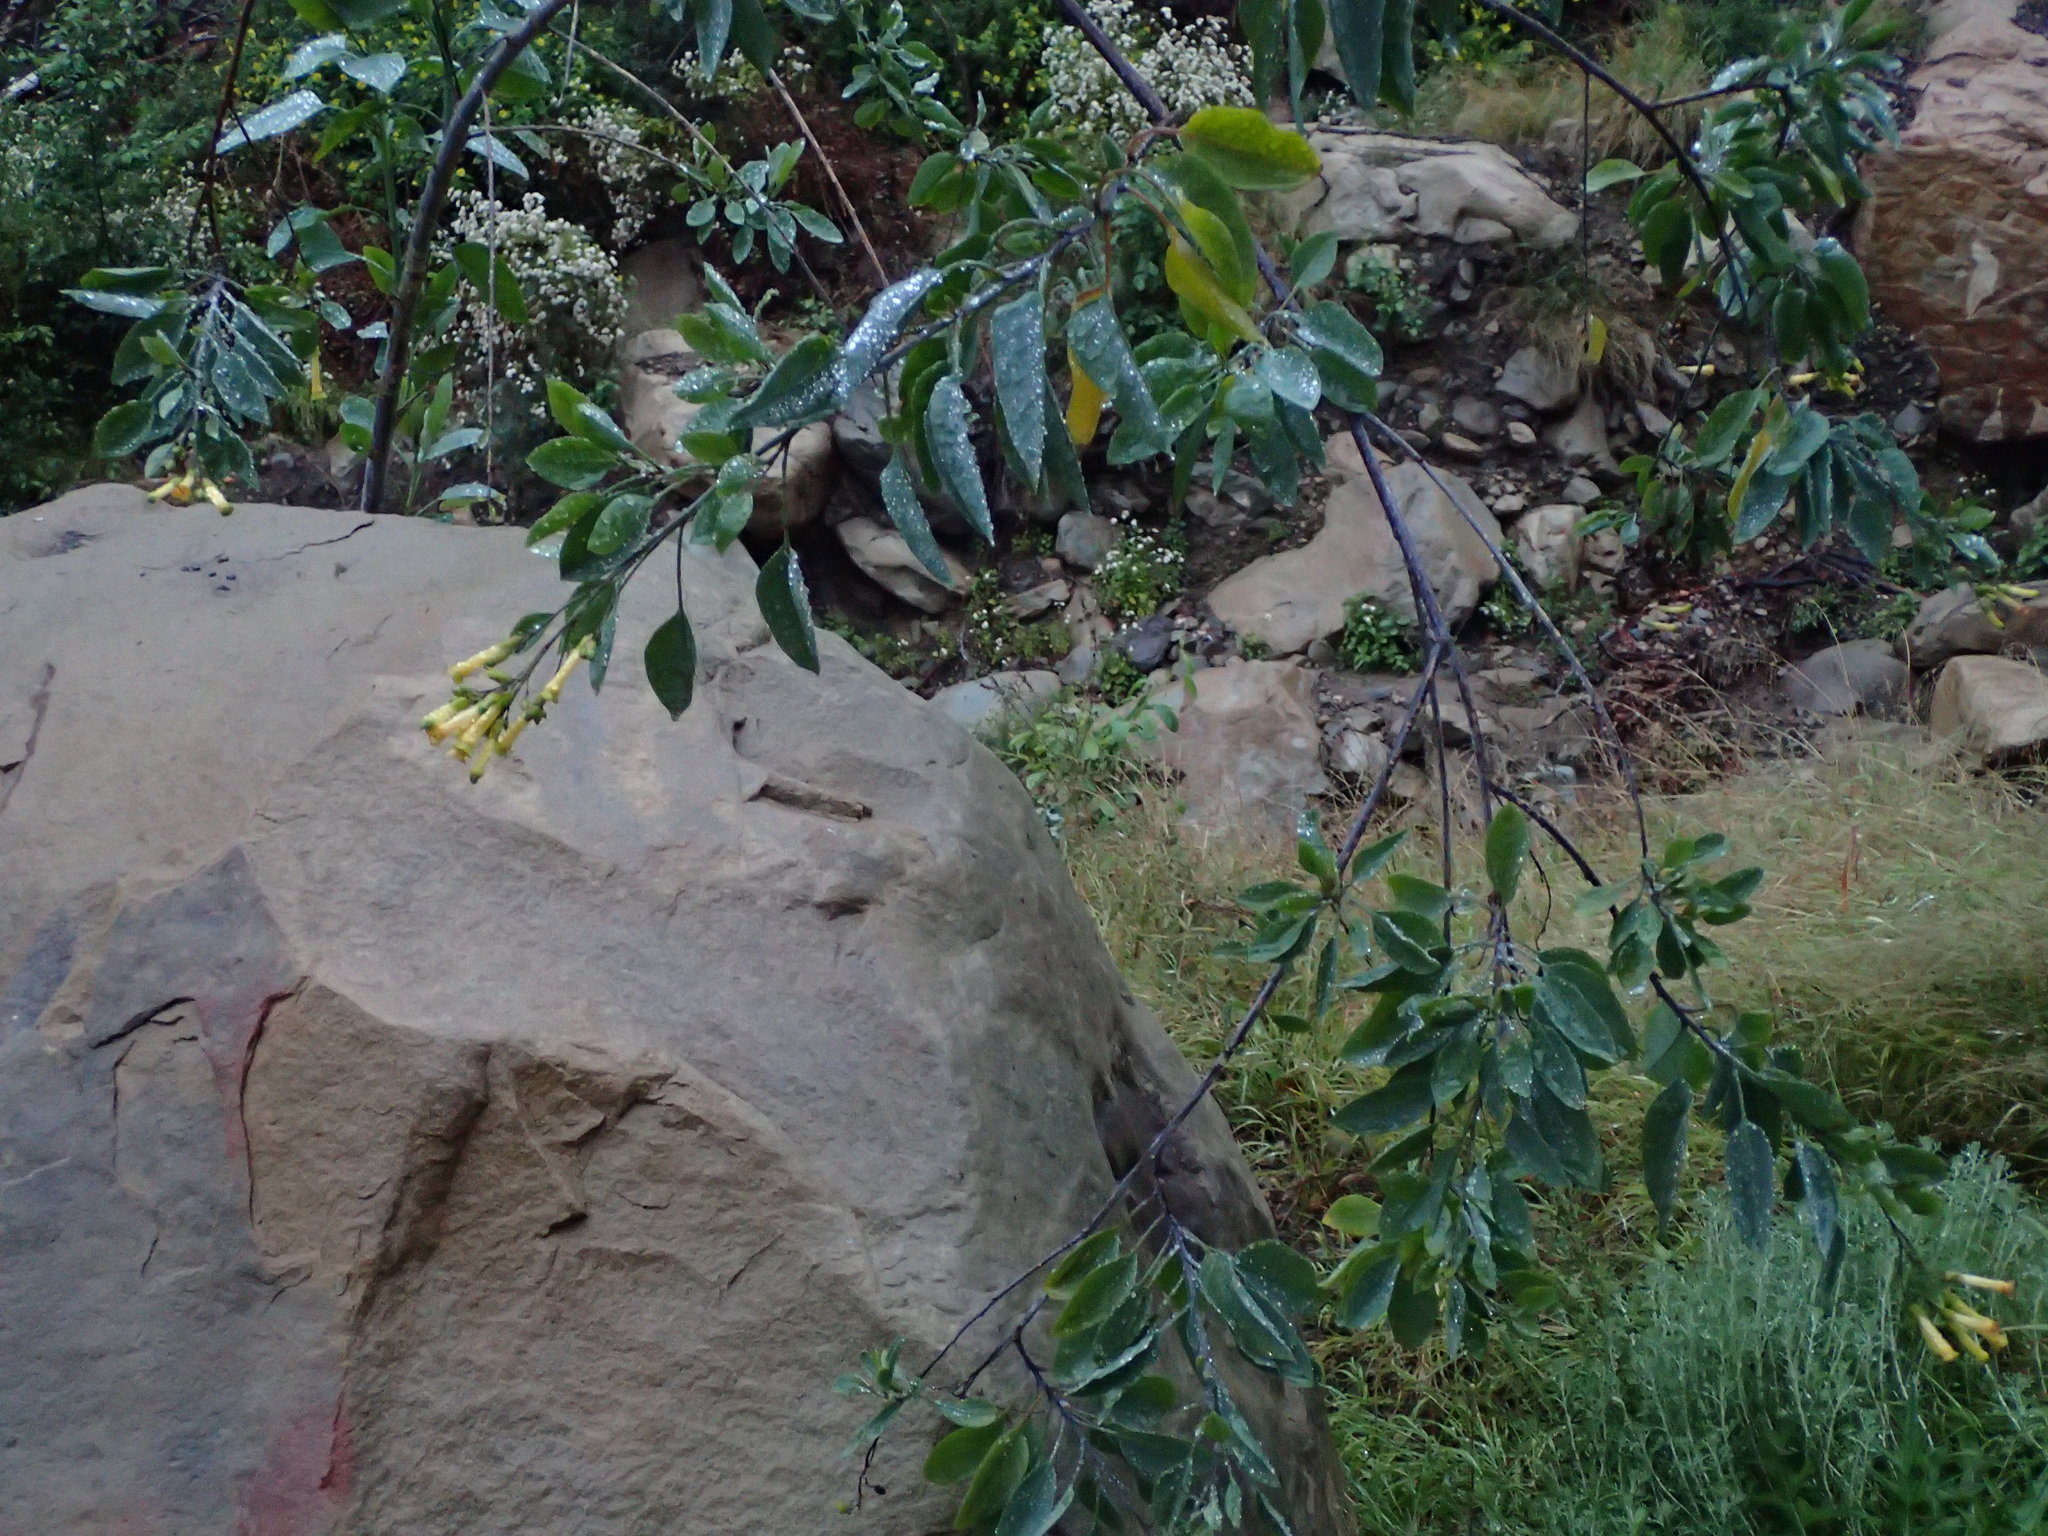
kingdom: Plantae
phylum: Tracheophyta
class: Magnoliopsida
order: Solanales
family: Solanaceae
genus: Nicotiana
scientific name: Nicotiana glauca
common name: Tree tobacco
